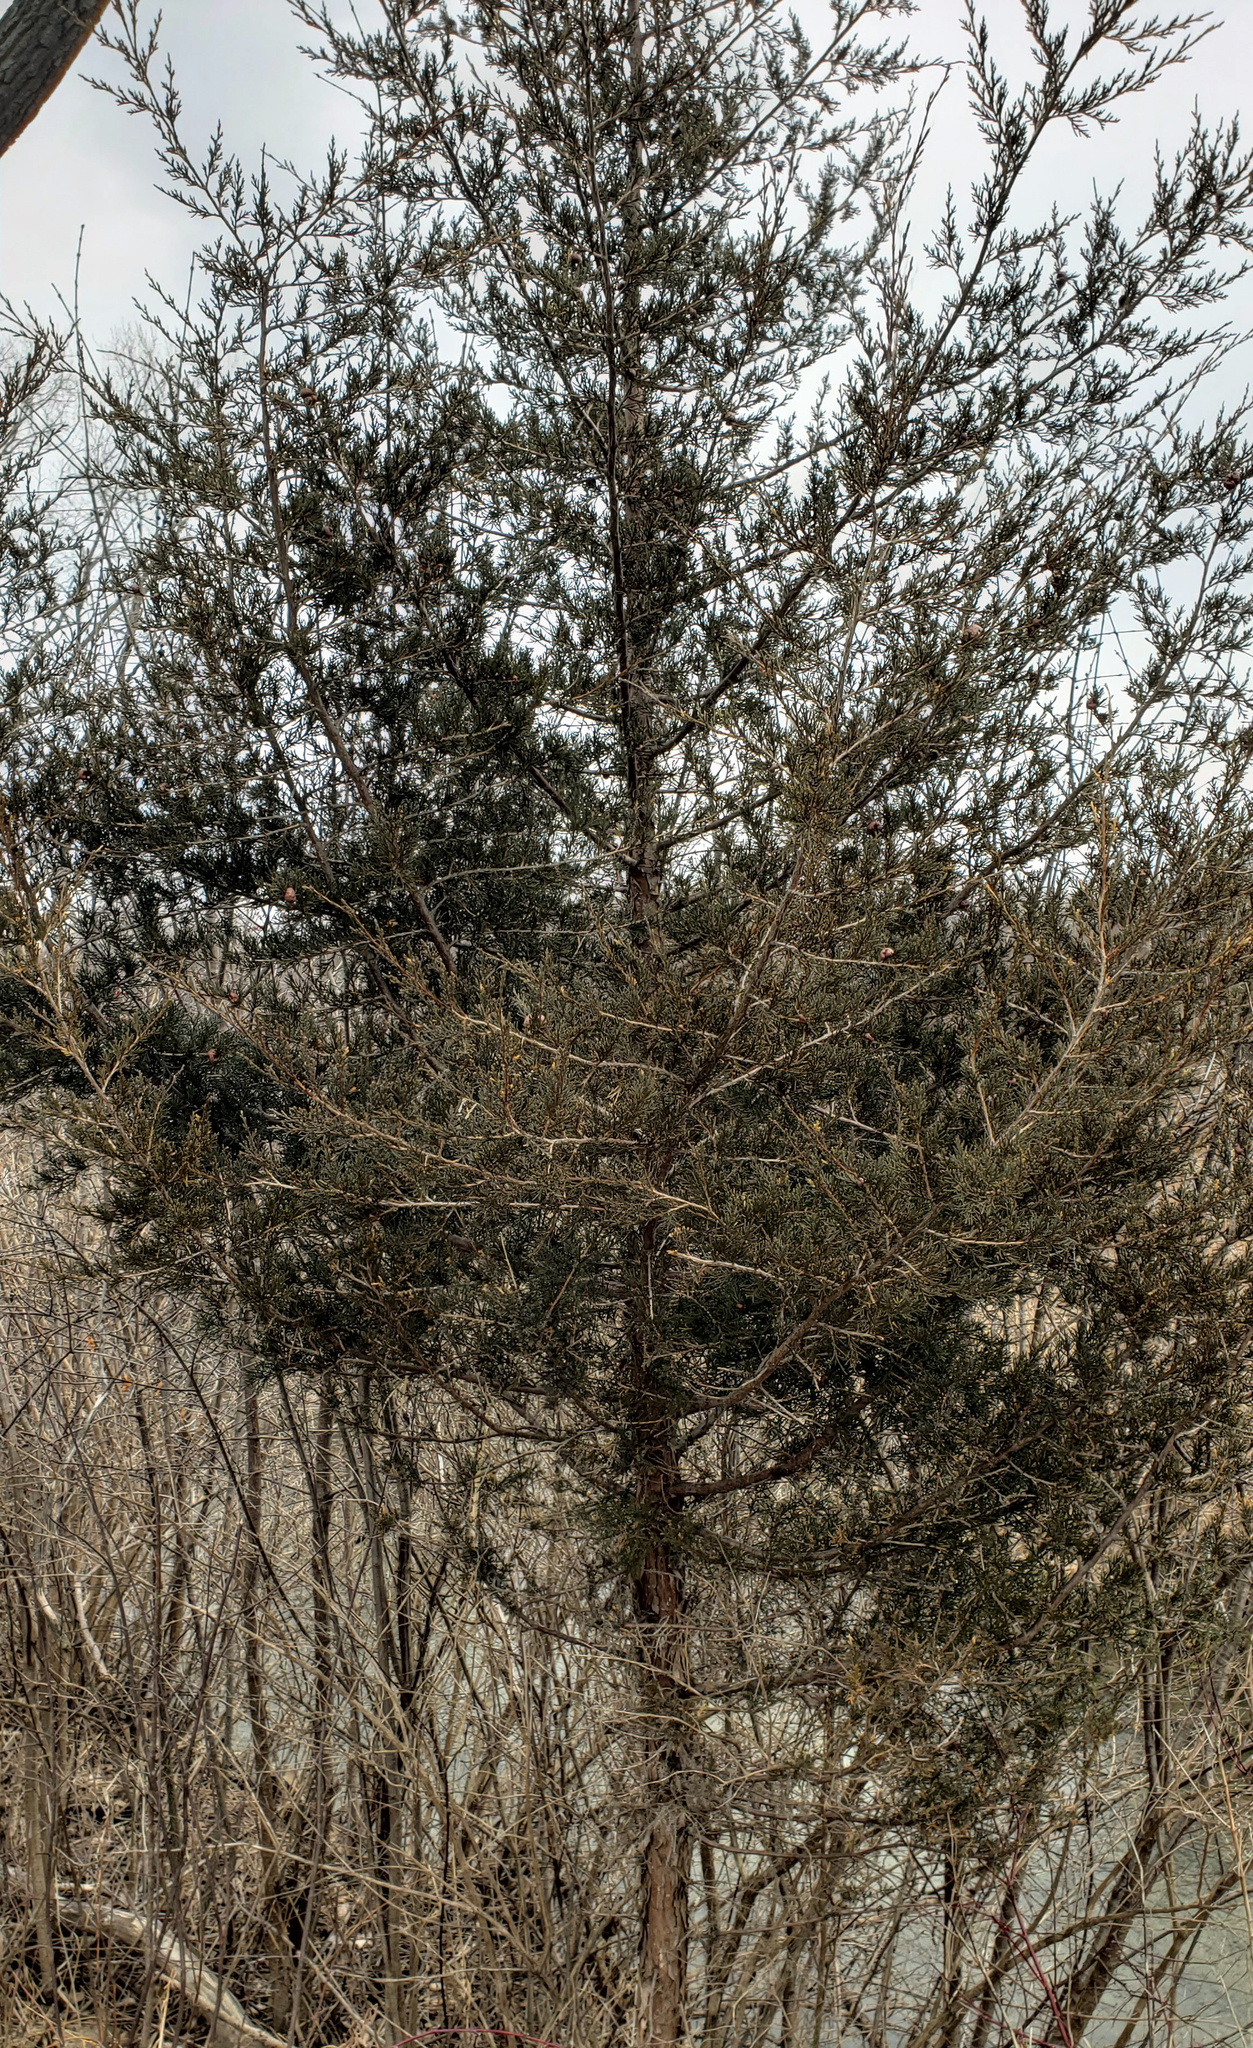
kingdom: Plantae
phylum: Tracheophyta
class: Pinopsida
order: Pinales
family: Cupressaceae
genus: Juniperus
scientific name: Juniperus virginiana
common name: Red juniper
